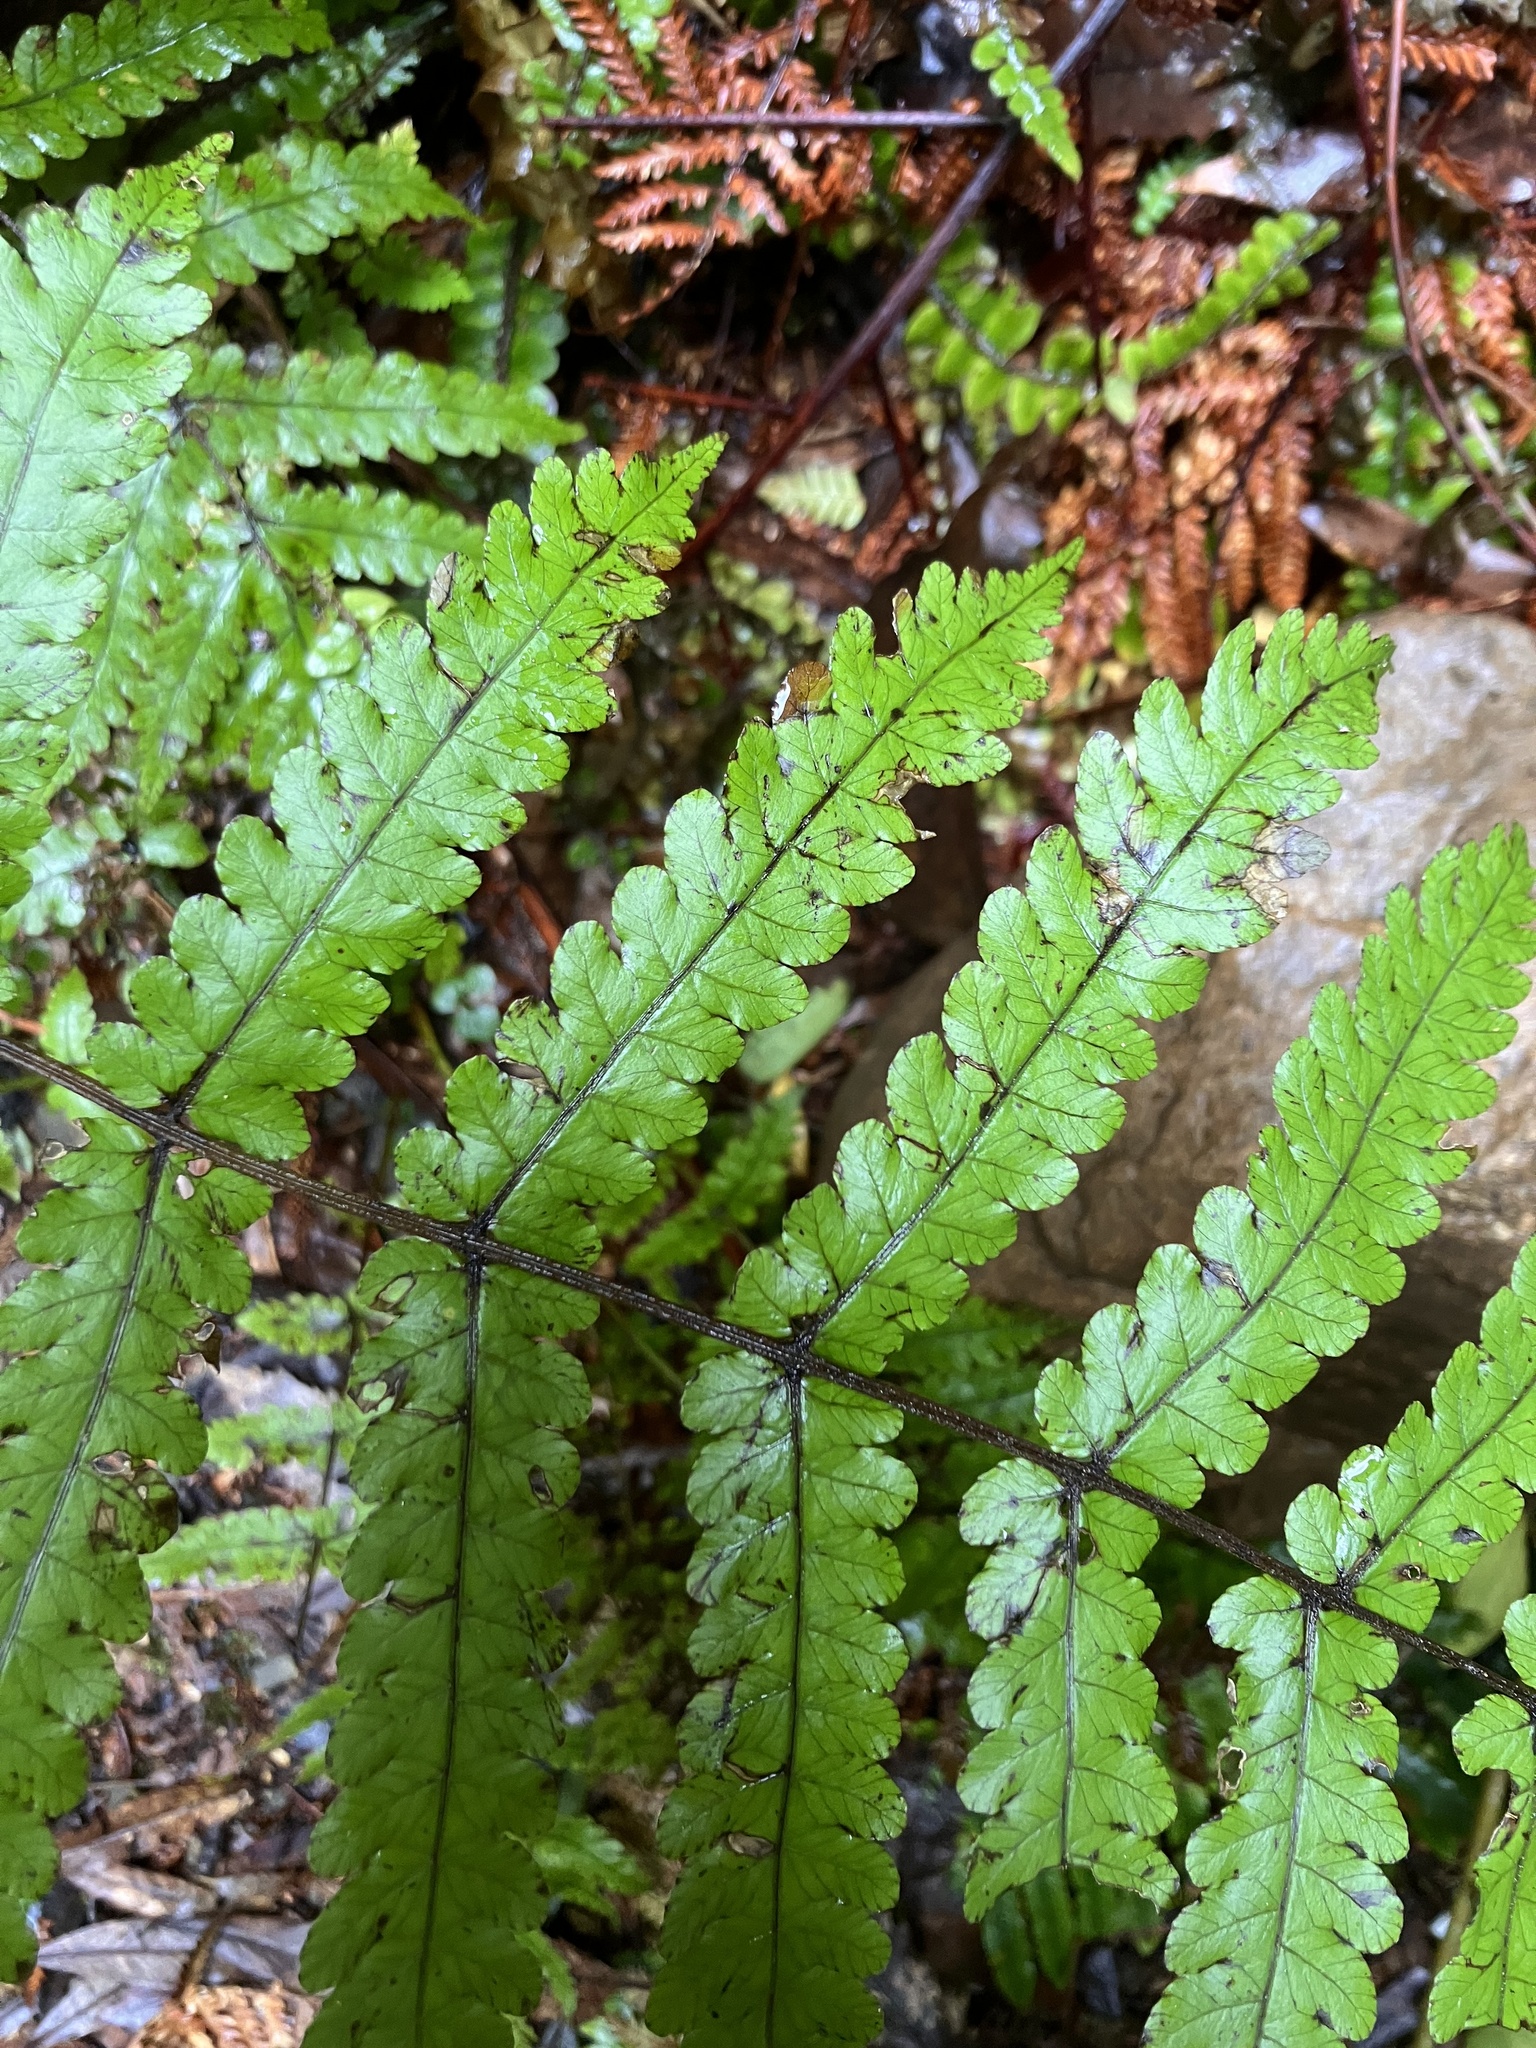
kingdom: Plantae
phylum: Tracheophyta
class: Polypodiopsida
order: Polypodiales
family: Thelypteridaceae
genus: Pakau
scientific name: Pakau pennigera
